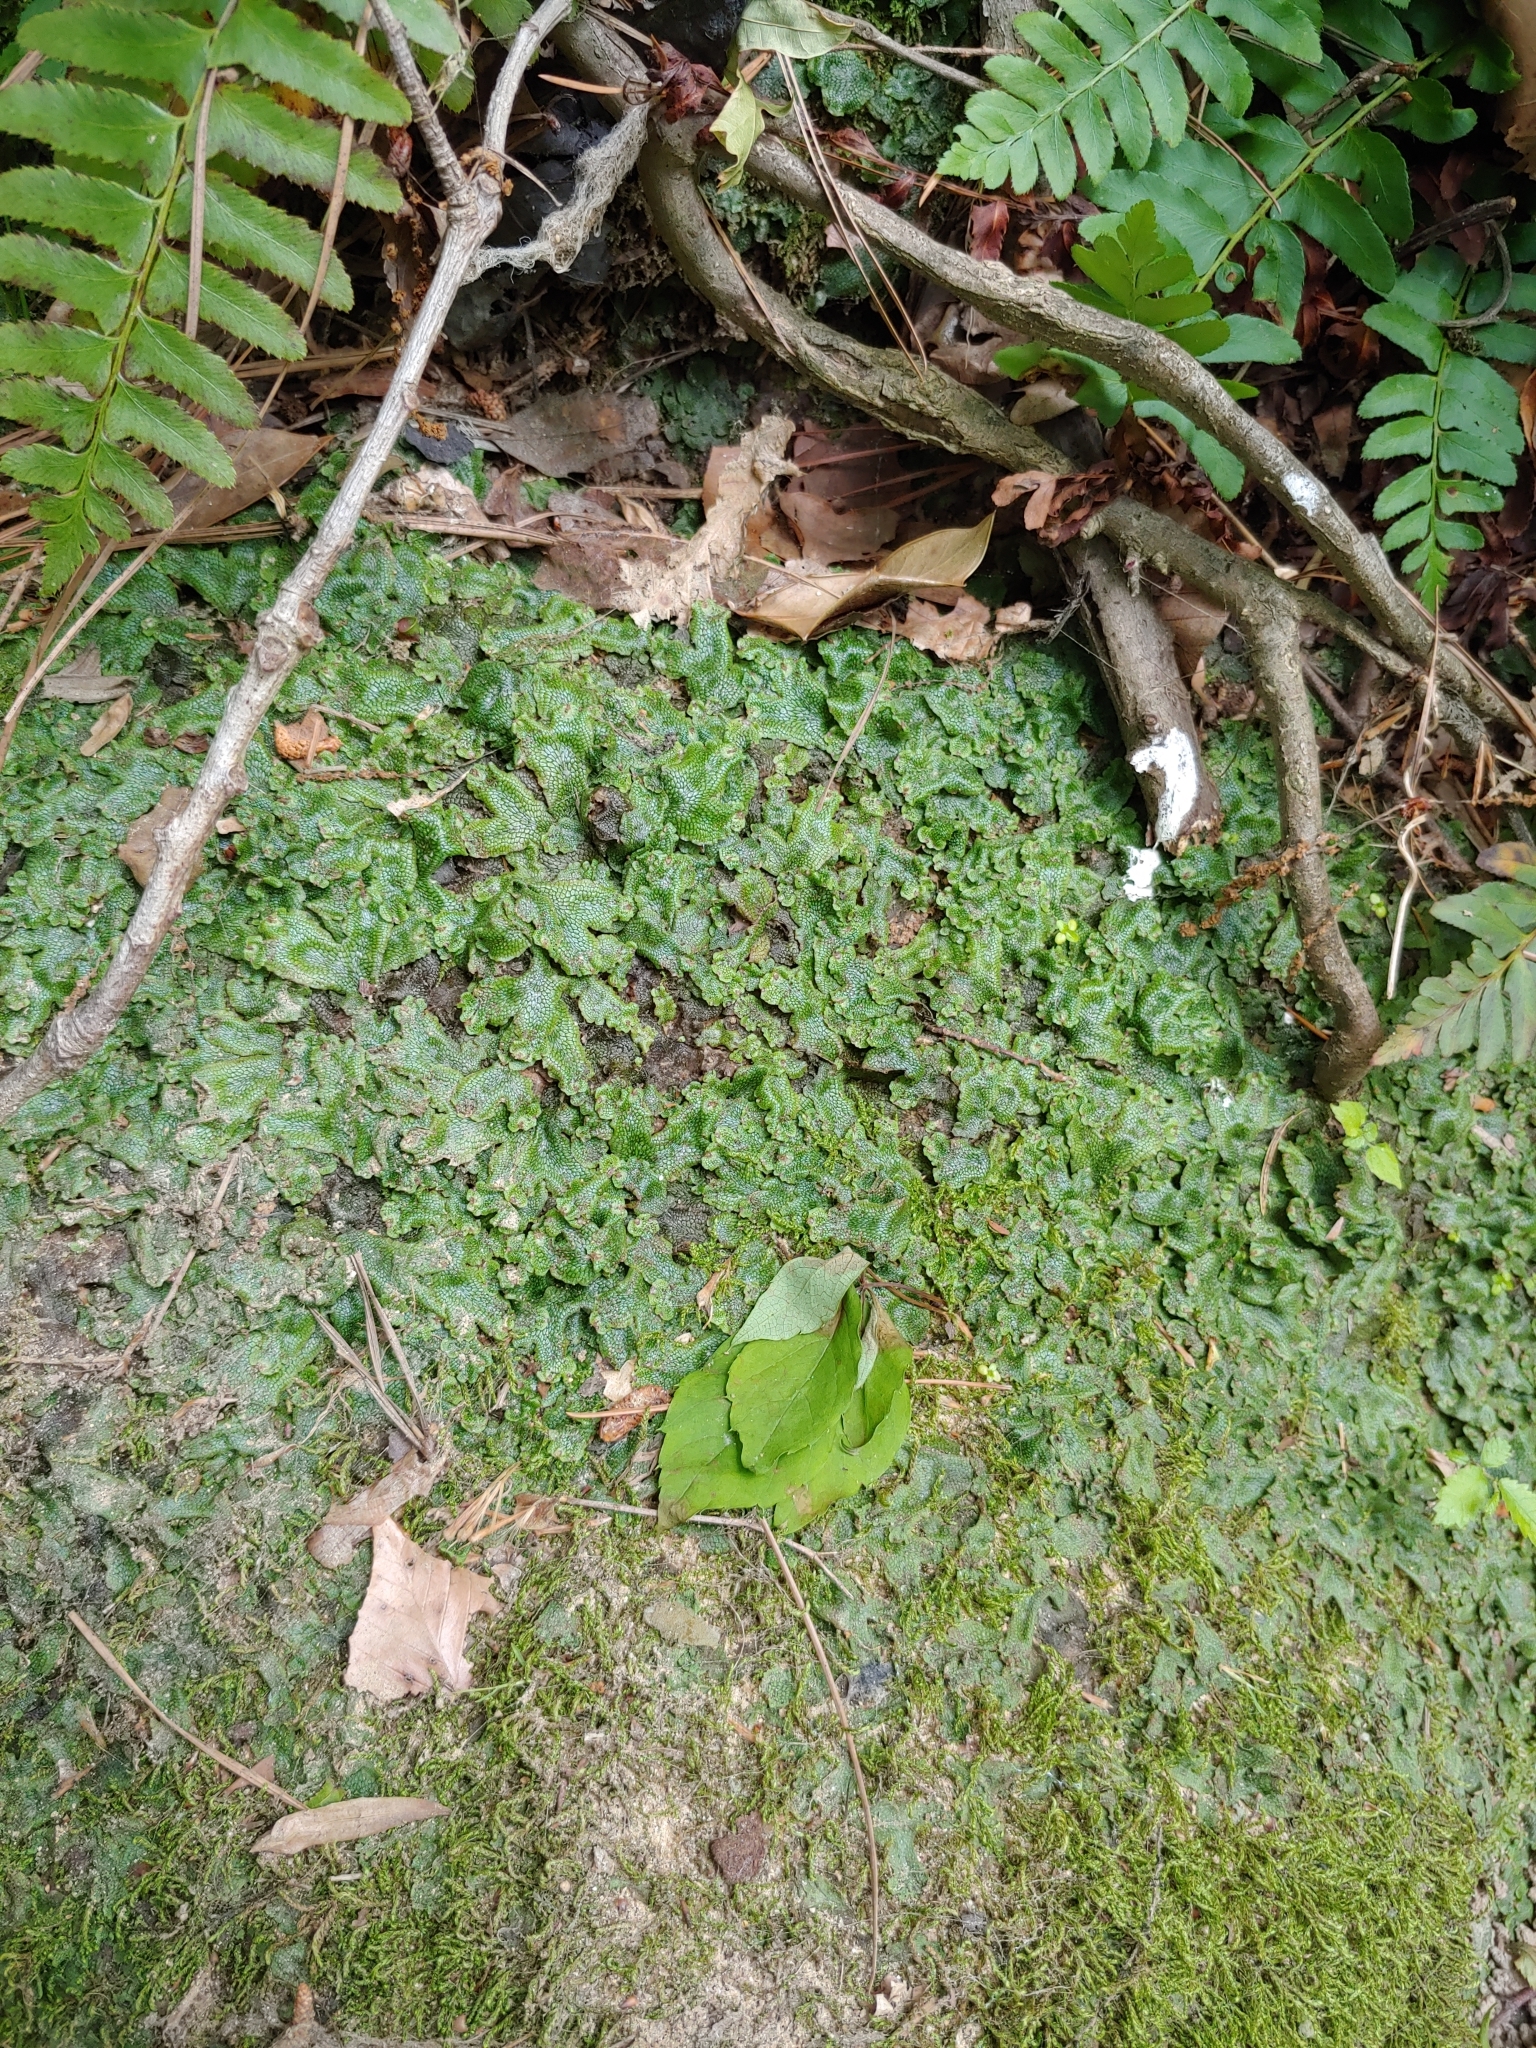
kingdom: Plantae
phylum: Marchantiophyta
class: Marchantiopsida
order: Marchantiales
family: Conocephalaceae
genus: Conocephalum
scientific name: Conocephalum salebrosum
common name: Cat-tongue liverwort
